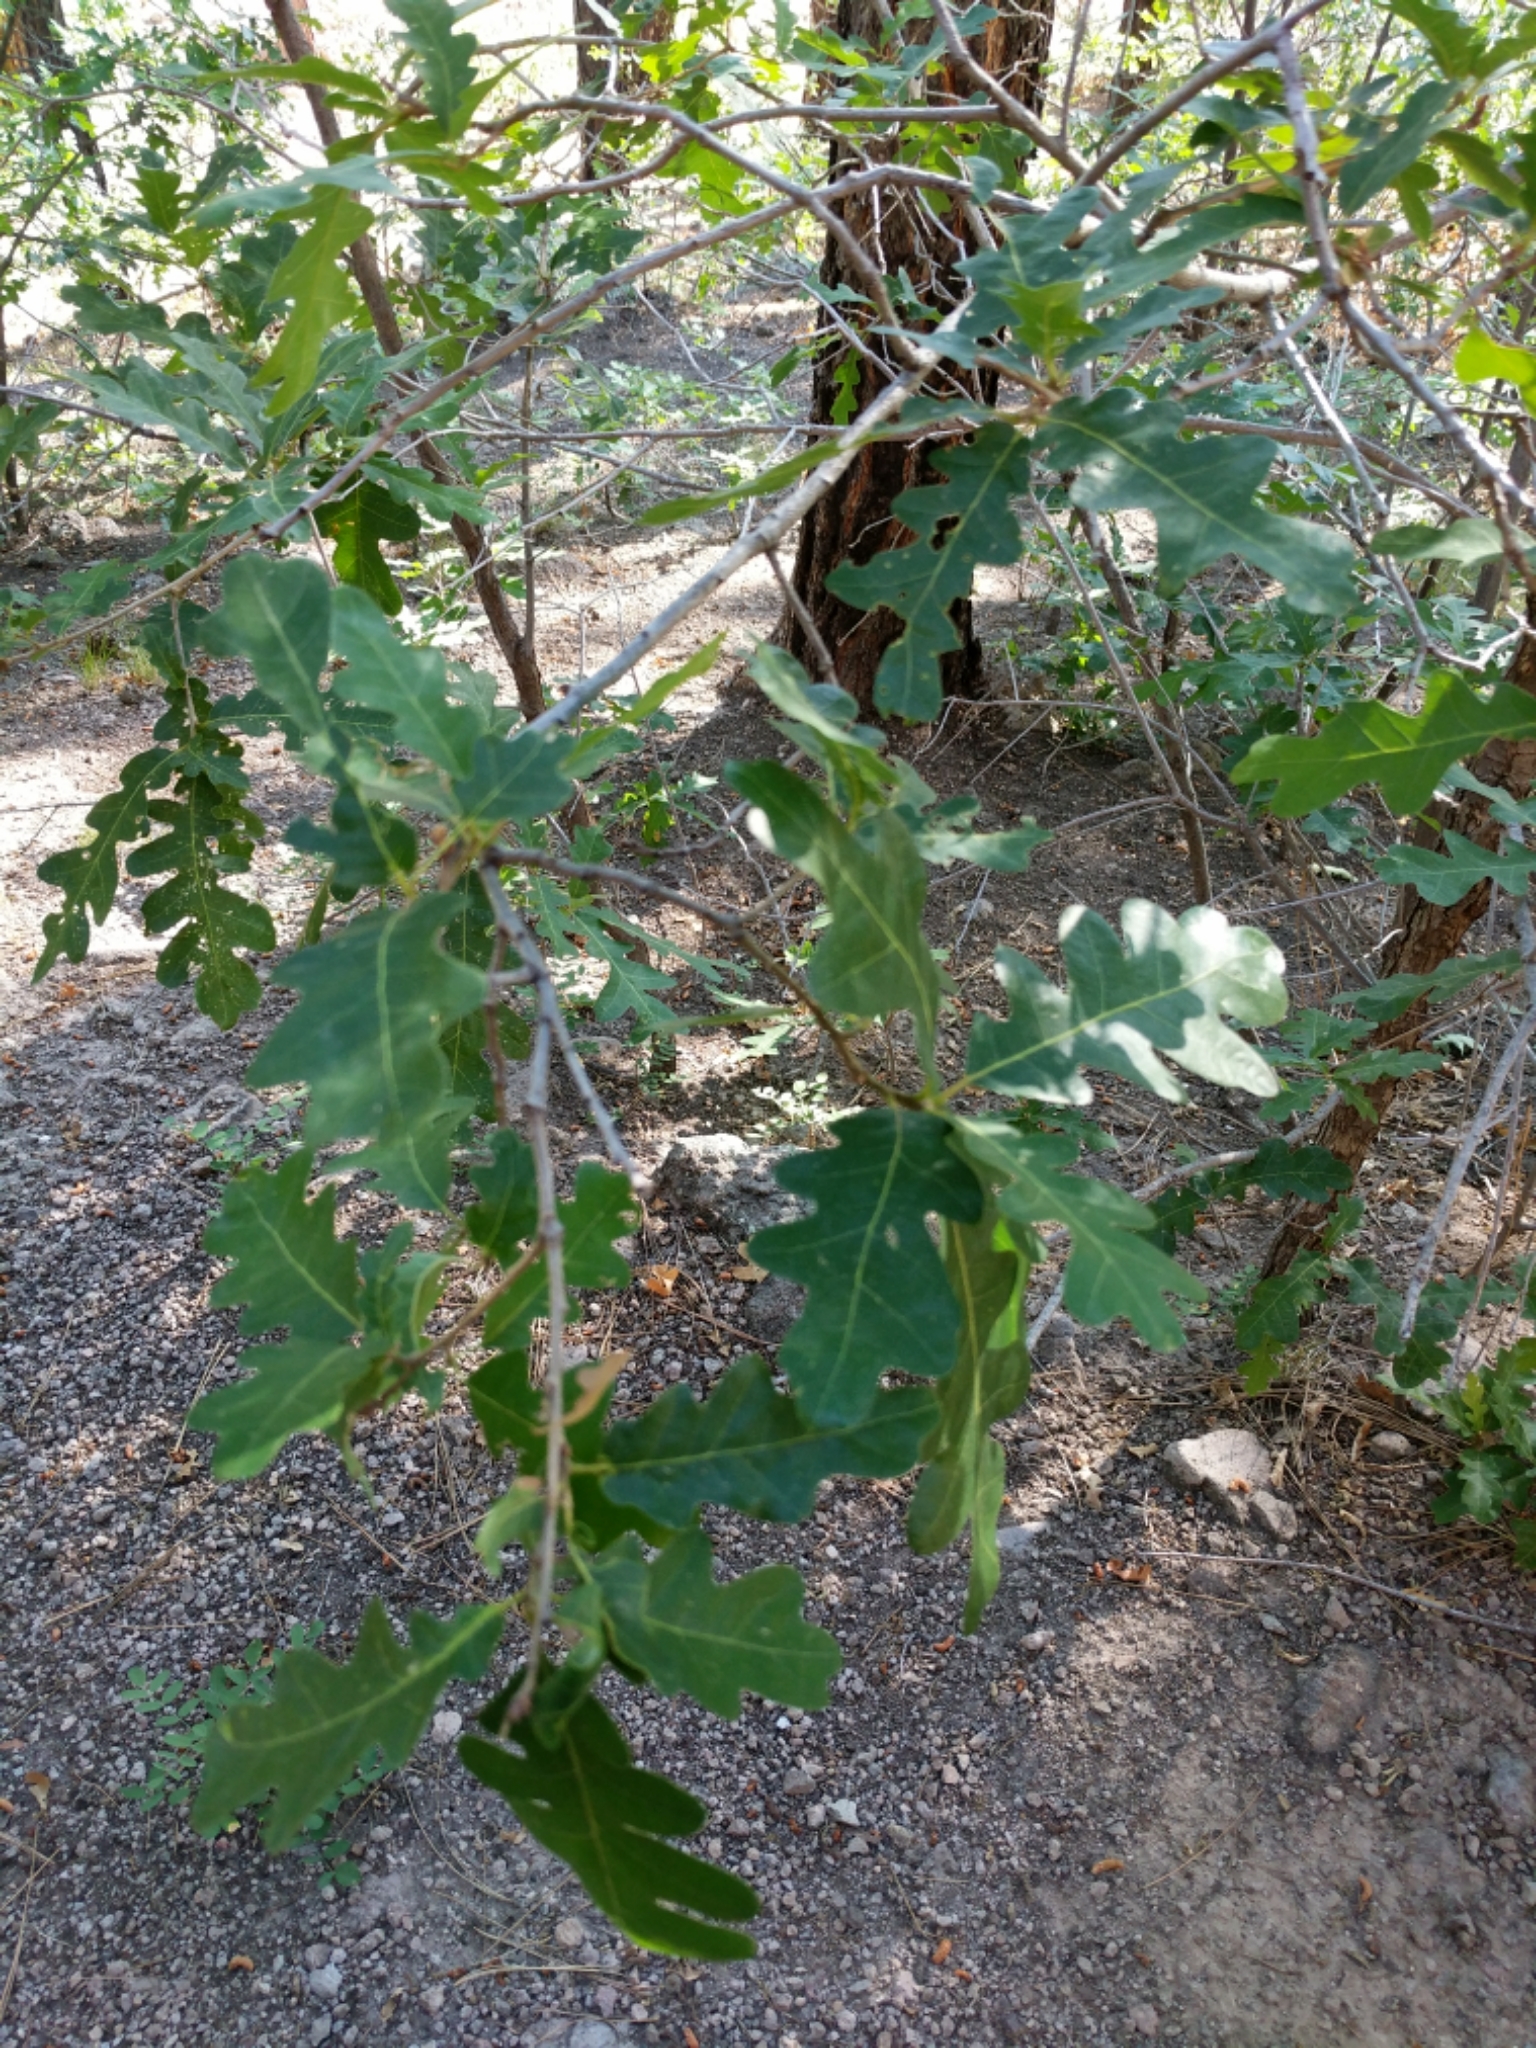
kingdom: Plantae
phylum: Tracheophyta
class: Magnoliopsida
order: Fagales
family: Fagaceae
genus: Quercus
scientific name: Quercus gambelii
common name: Gambel oak
